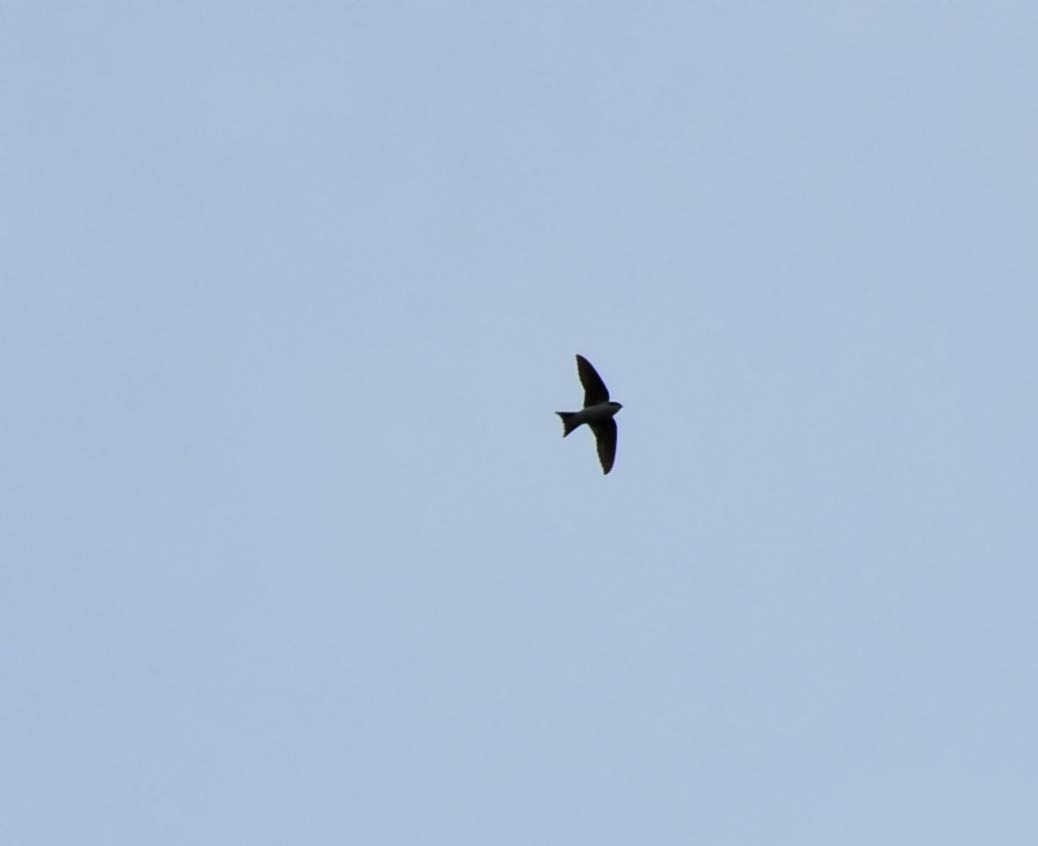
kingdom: Animalia
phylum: Chordata
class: Aves
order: Passeriformes
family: Hirundinidae
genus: Delichon
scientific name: Delichon urbicum
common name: Common house martin
